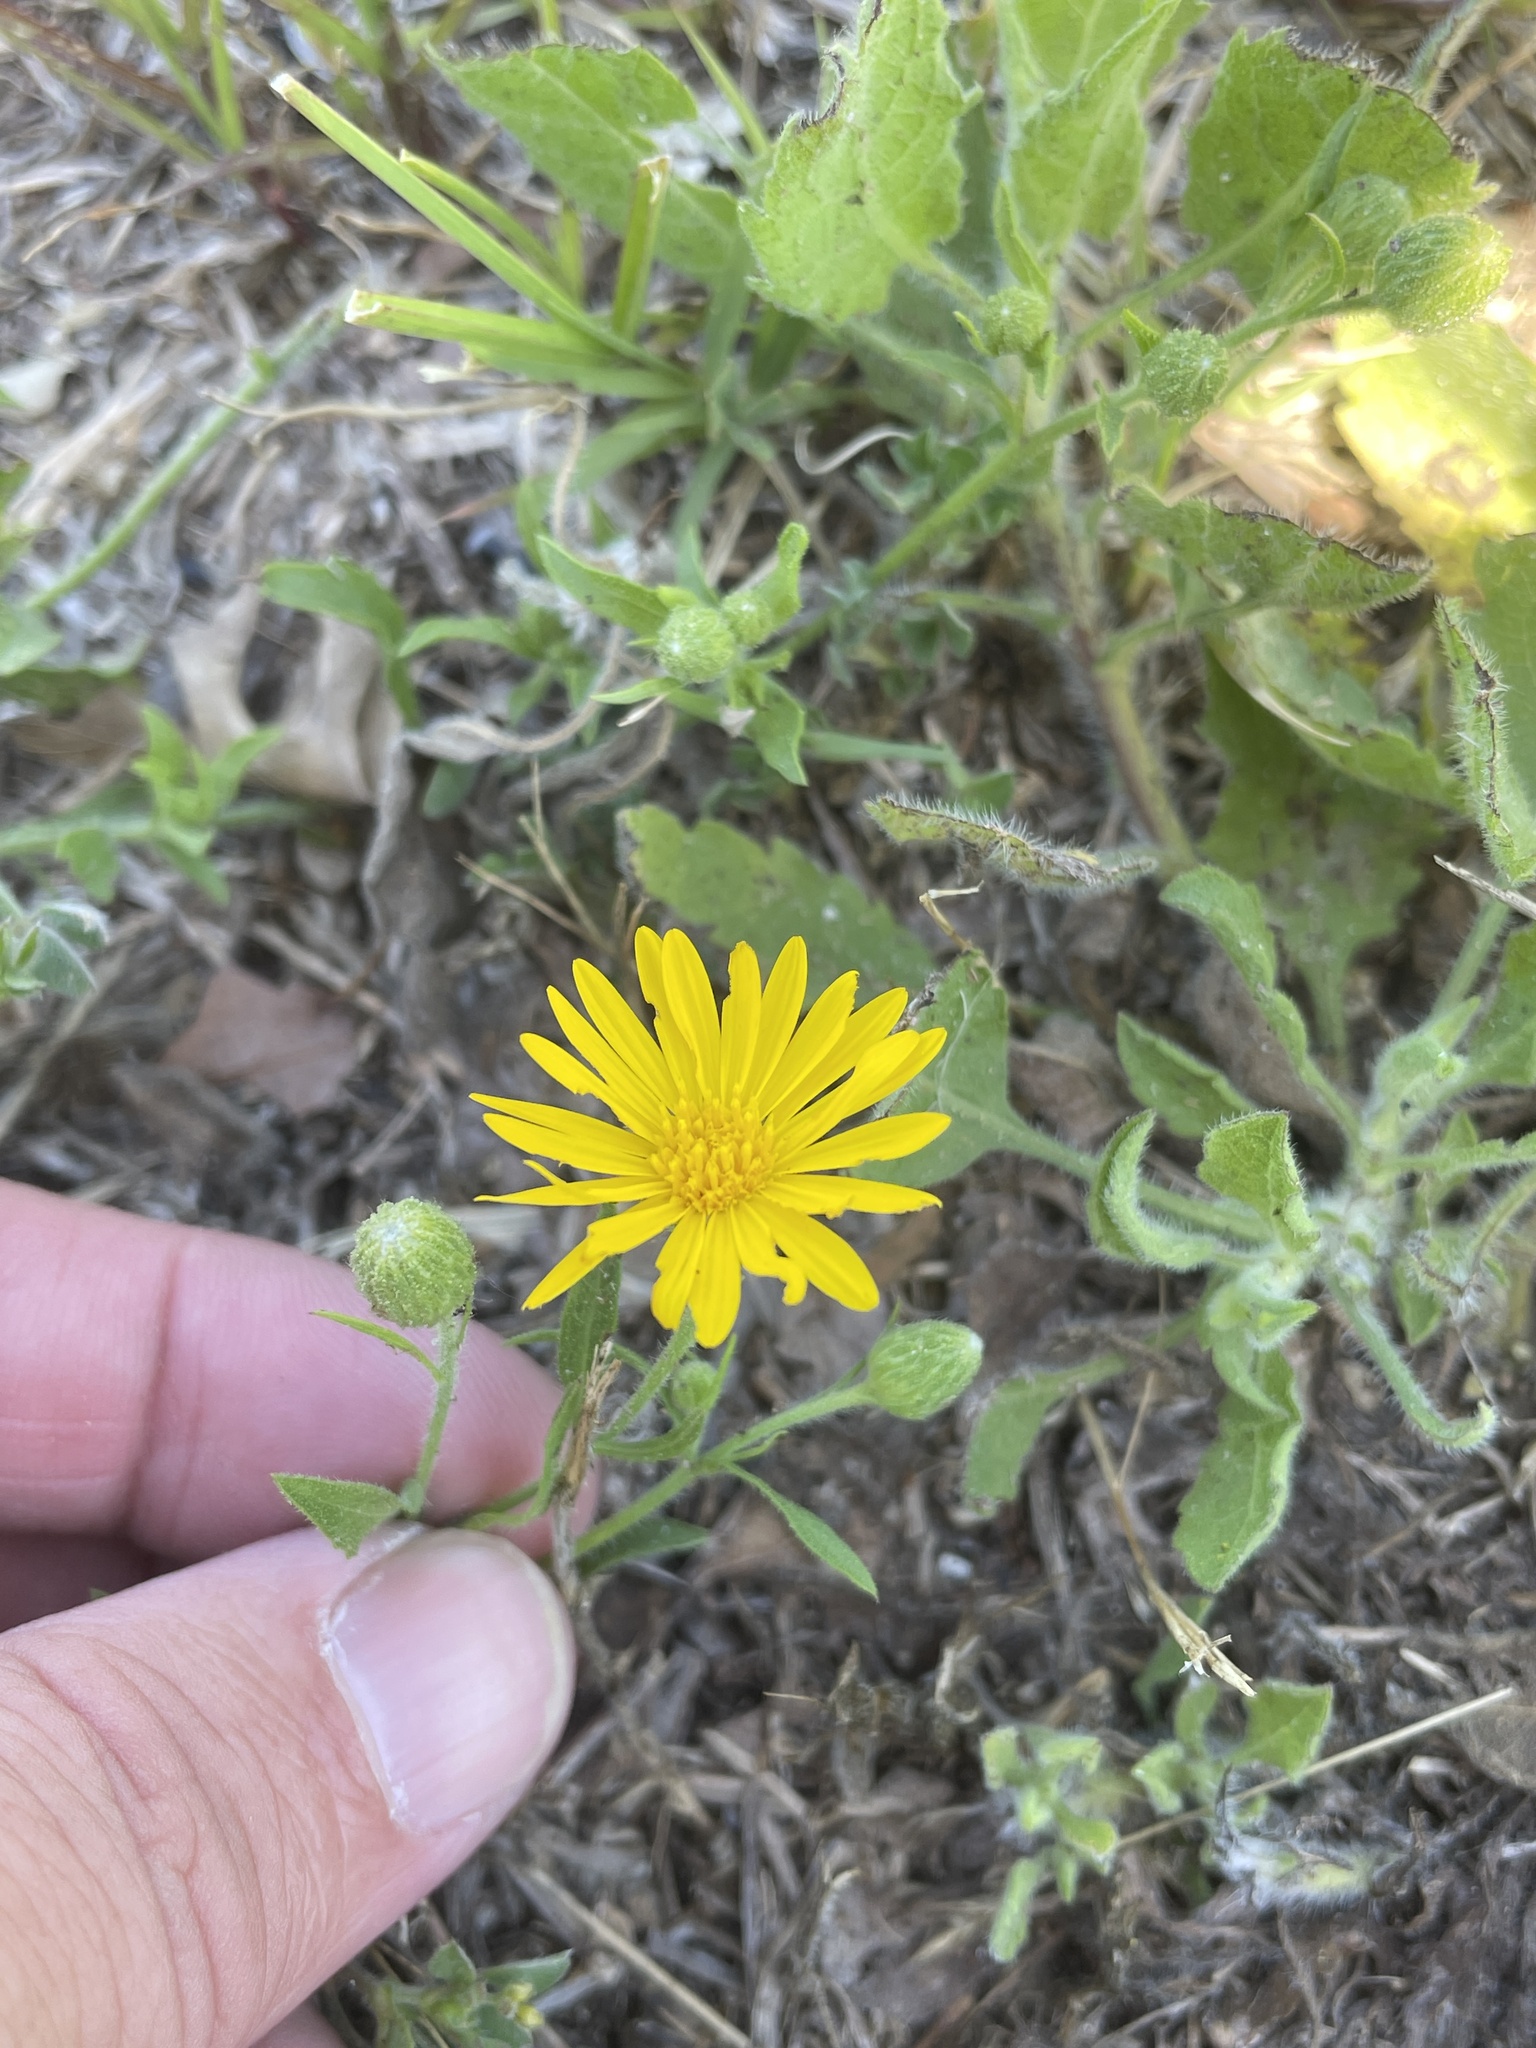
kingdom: Plantae
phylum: Tracheophyta
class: Magnoliopsida
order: Asterales
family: Asteraceae
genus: Heterotheca
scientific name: Heterotheca subaxillaris
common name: Camphorweed
